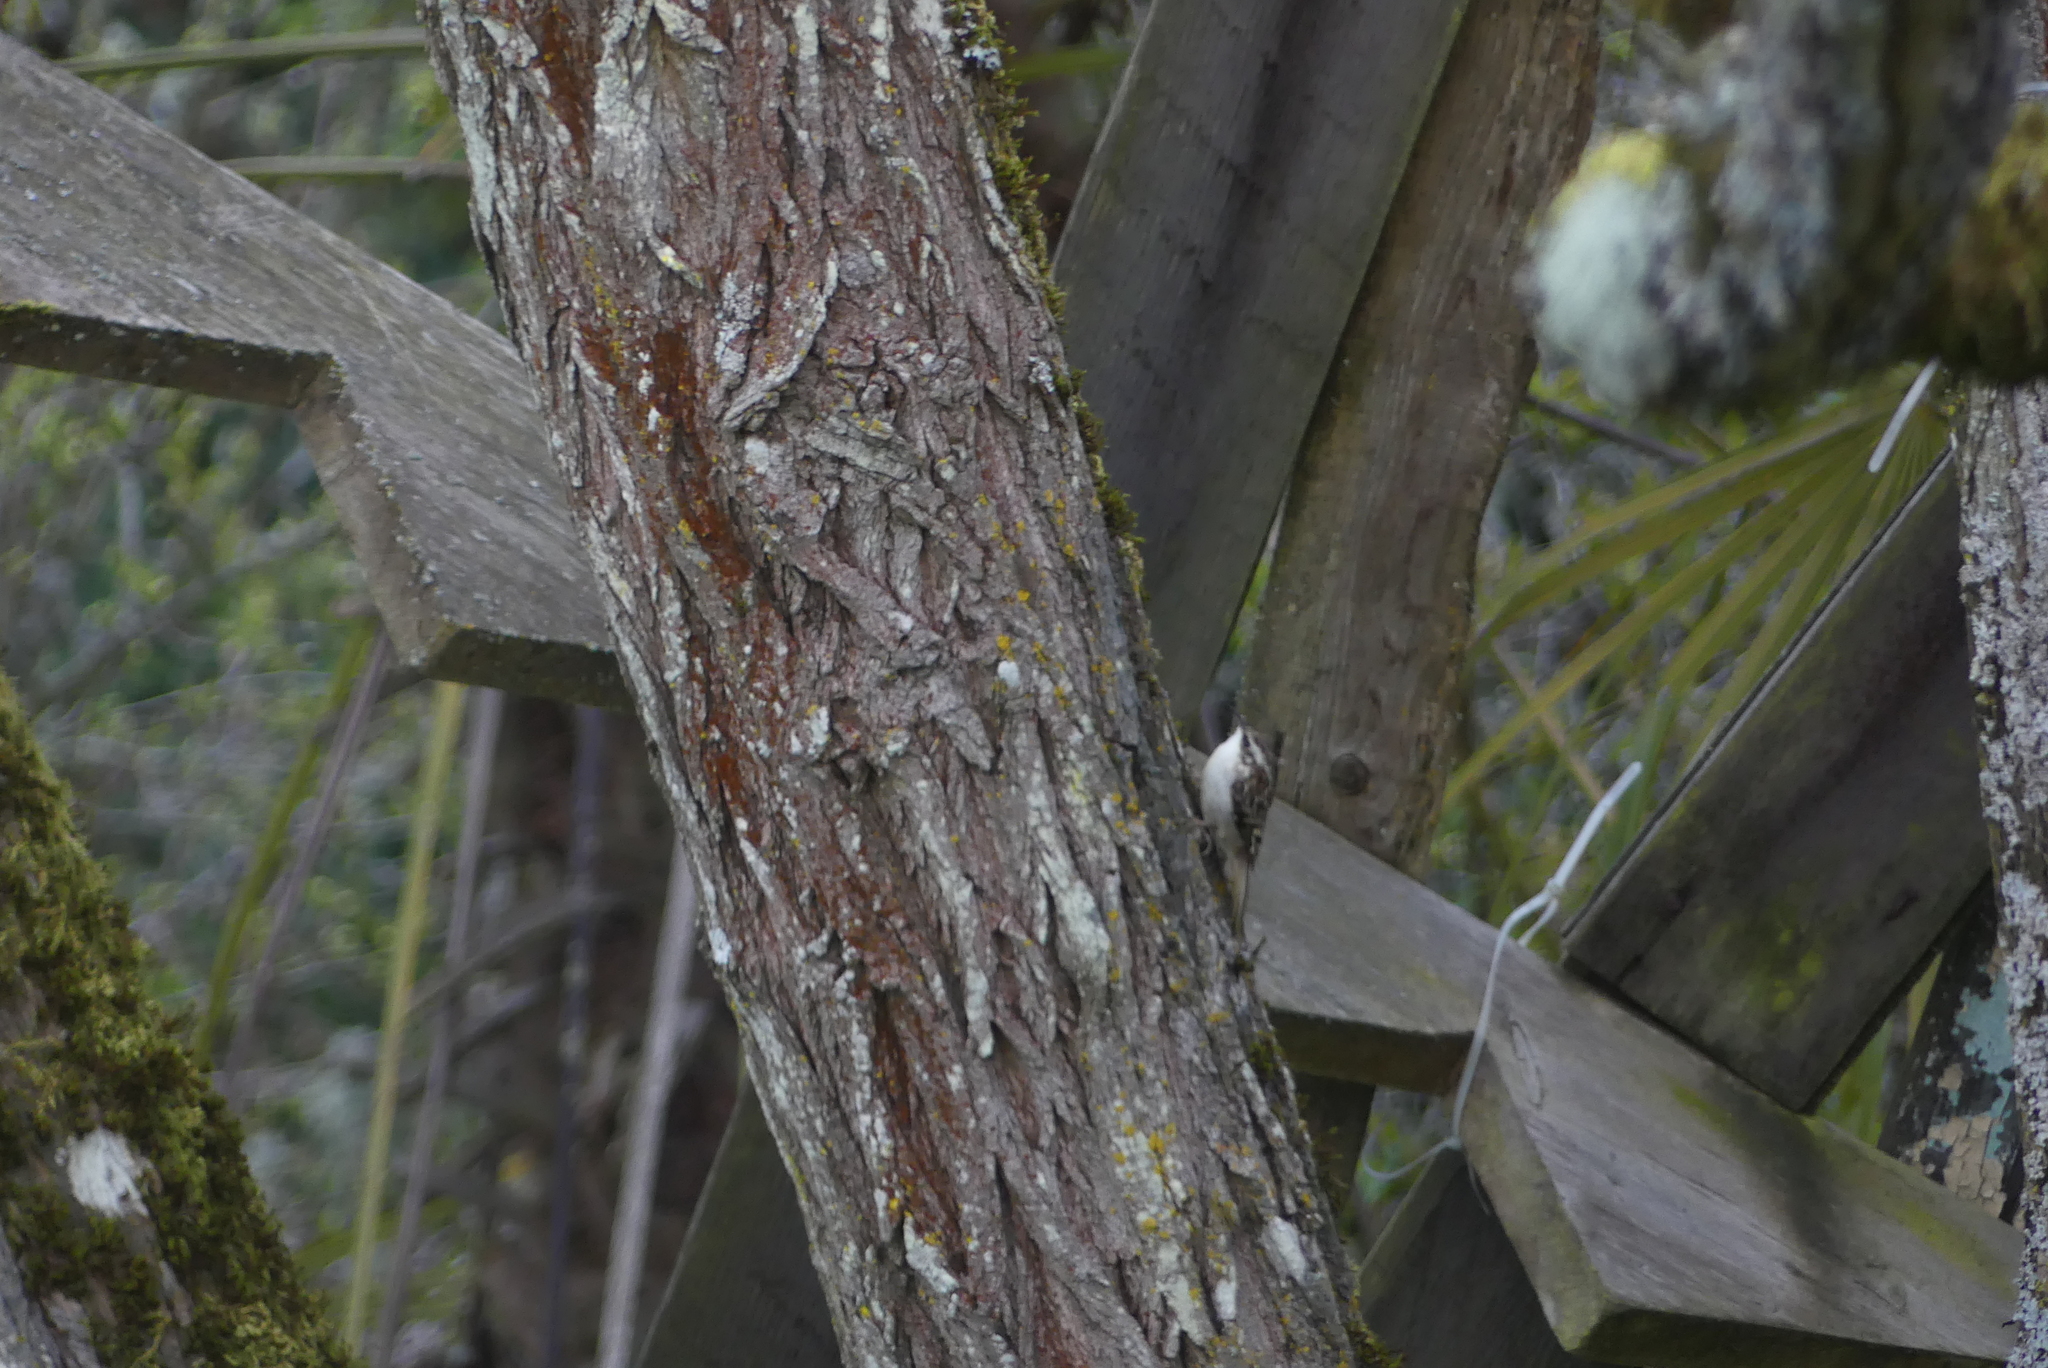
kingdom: Animalia
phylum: Chordata
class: Aves
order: Passeriformes
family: Certhiidae
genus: Certhia
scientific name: Certhia americana
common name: Brown creeper
